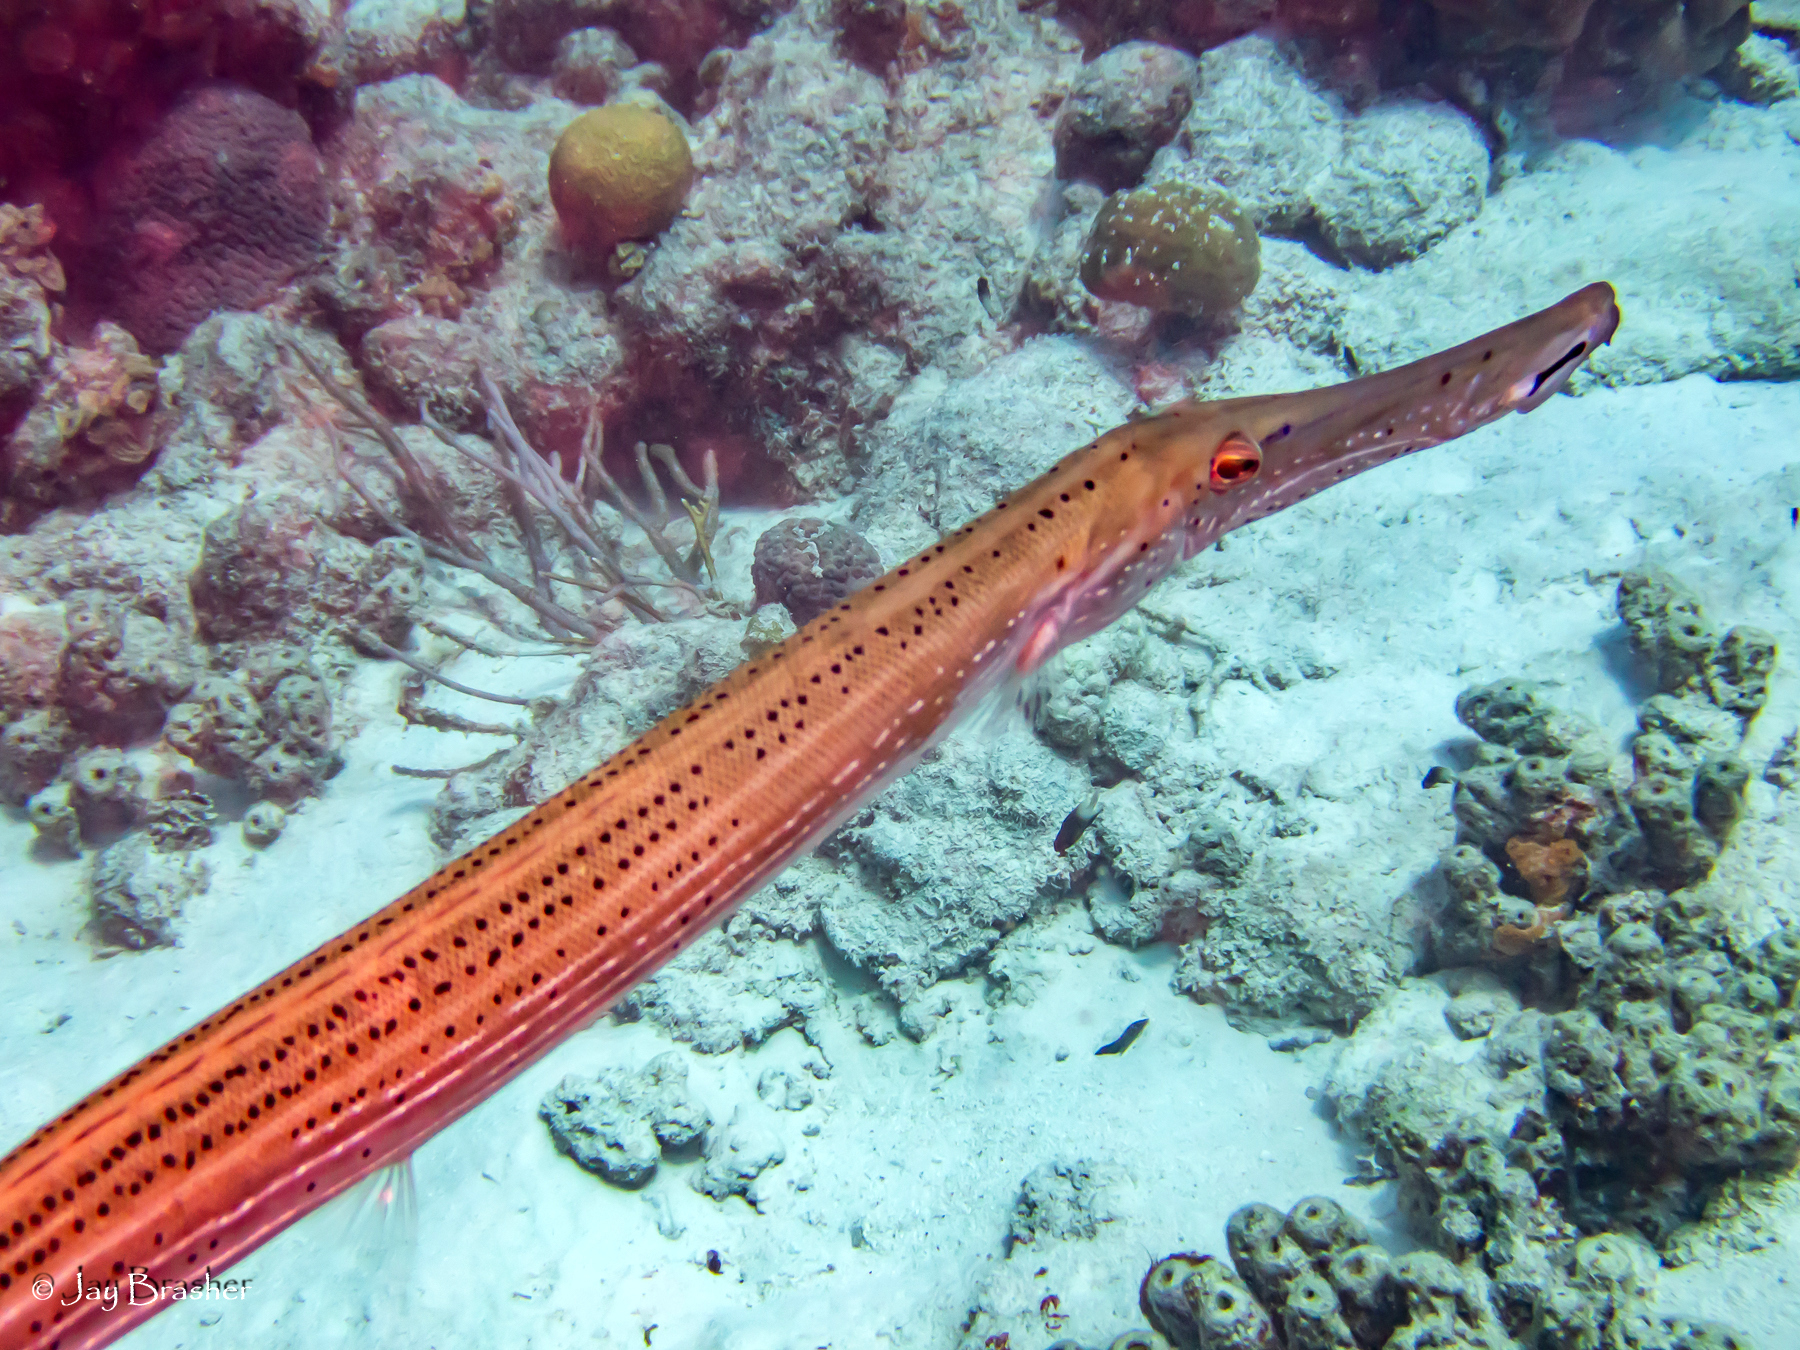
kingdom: Animalia
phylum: Chordata
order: Syngnathiformes
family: Aulostomidae
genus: Aulostomus
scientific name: Aulostomus maculatus
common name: West atlantic trumpetfish
